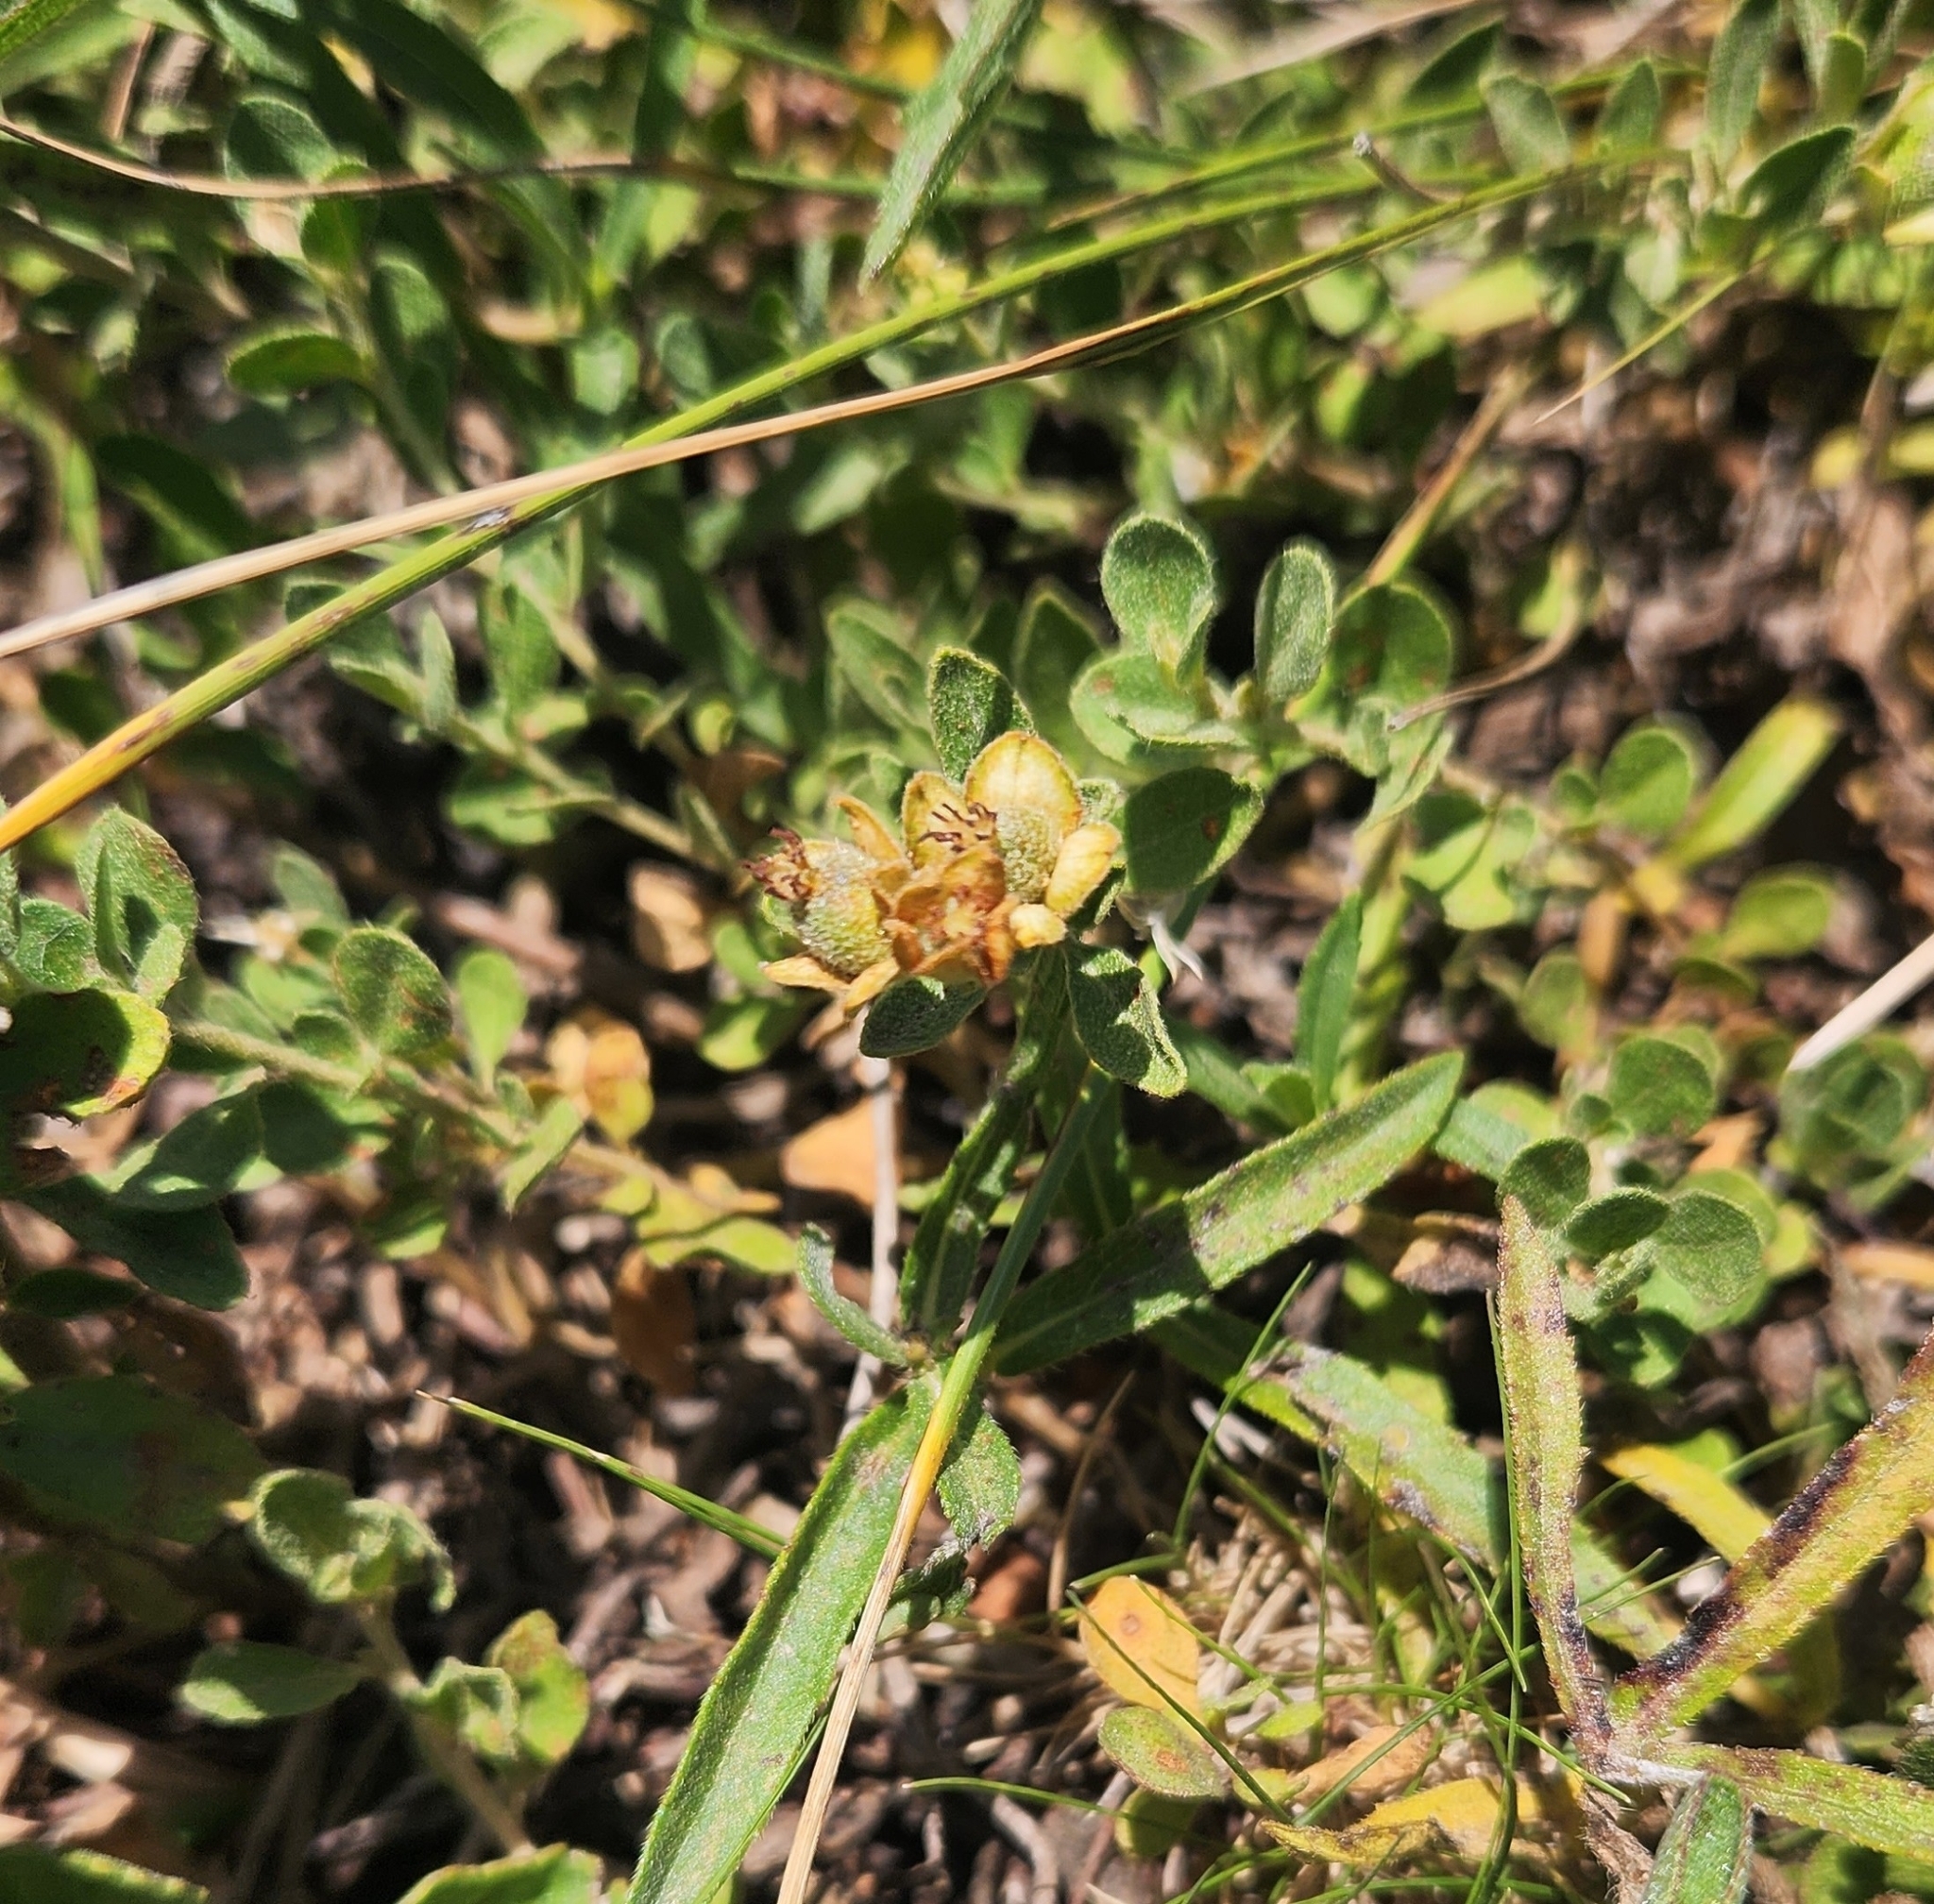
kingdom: Plantae
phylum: Tracheophyta
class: Magnoliopsida
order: Malpighiales
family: Euphorbiaceae
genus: Croton
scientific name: Croton nitrariifolius
